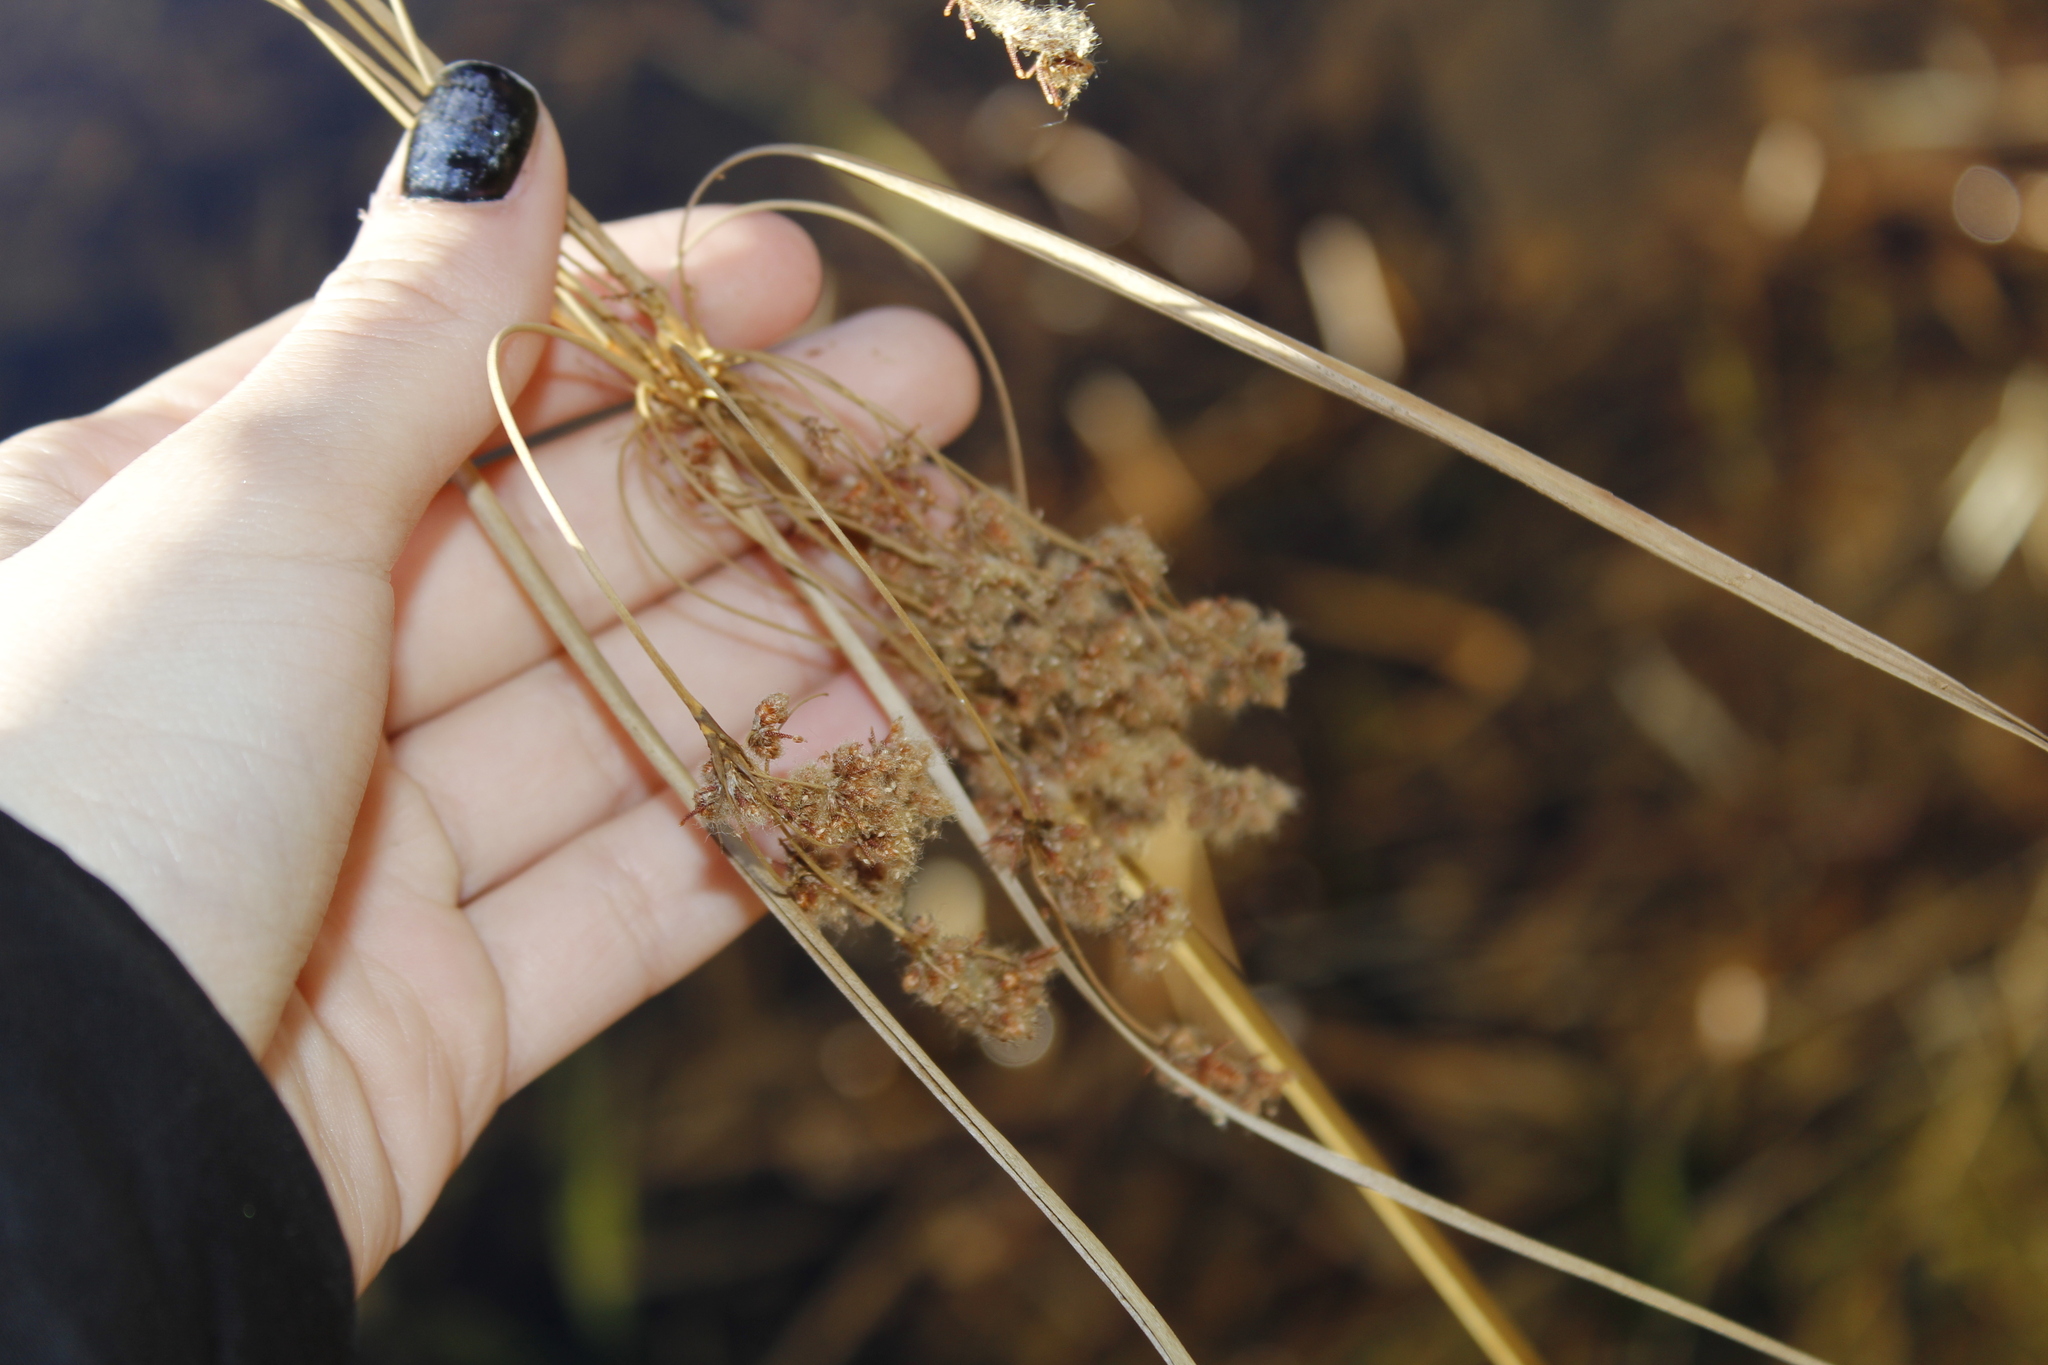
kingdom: Plantae
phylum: Tracheophyta
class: Liliopsida
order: Poales
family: Cyperaceae
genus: Scirpus
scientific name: Scirpus cyperinus
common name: Black-sheathed bulrush
